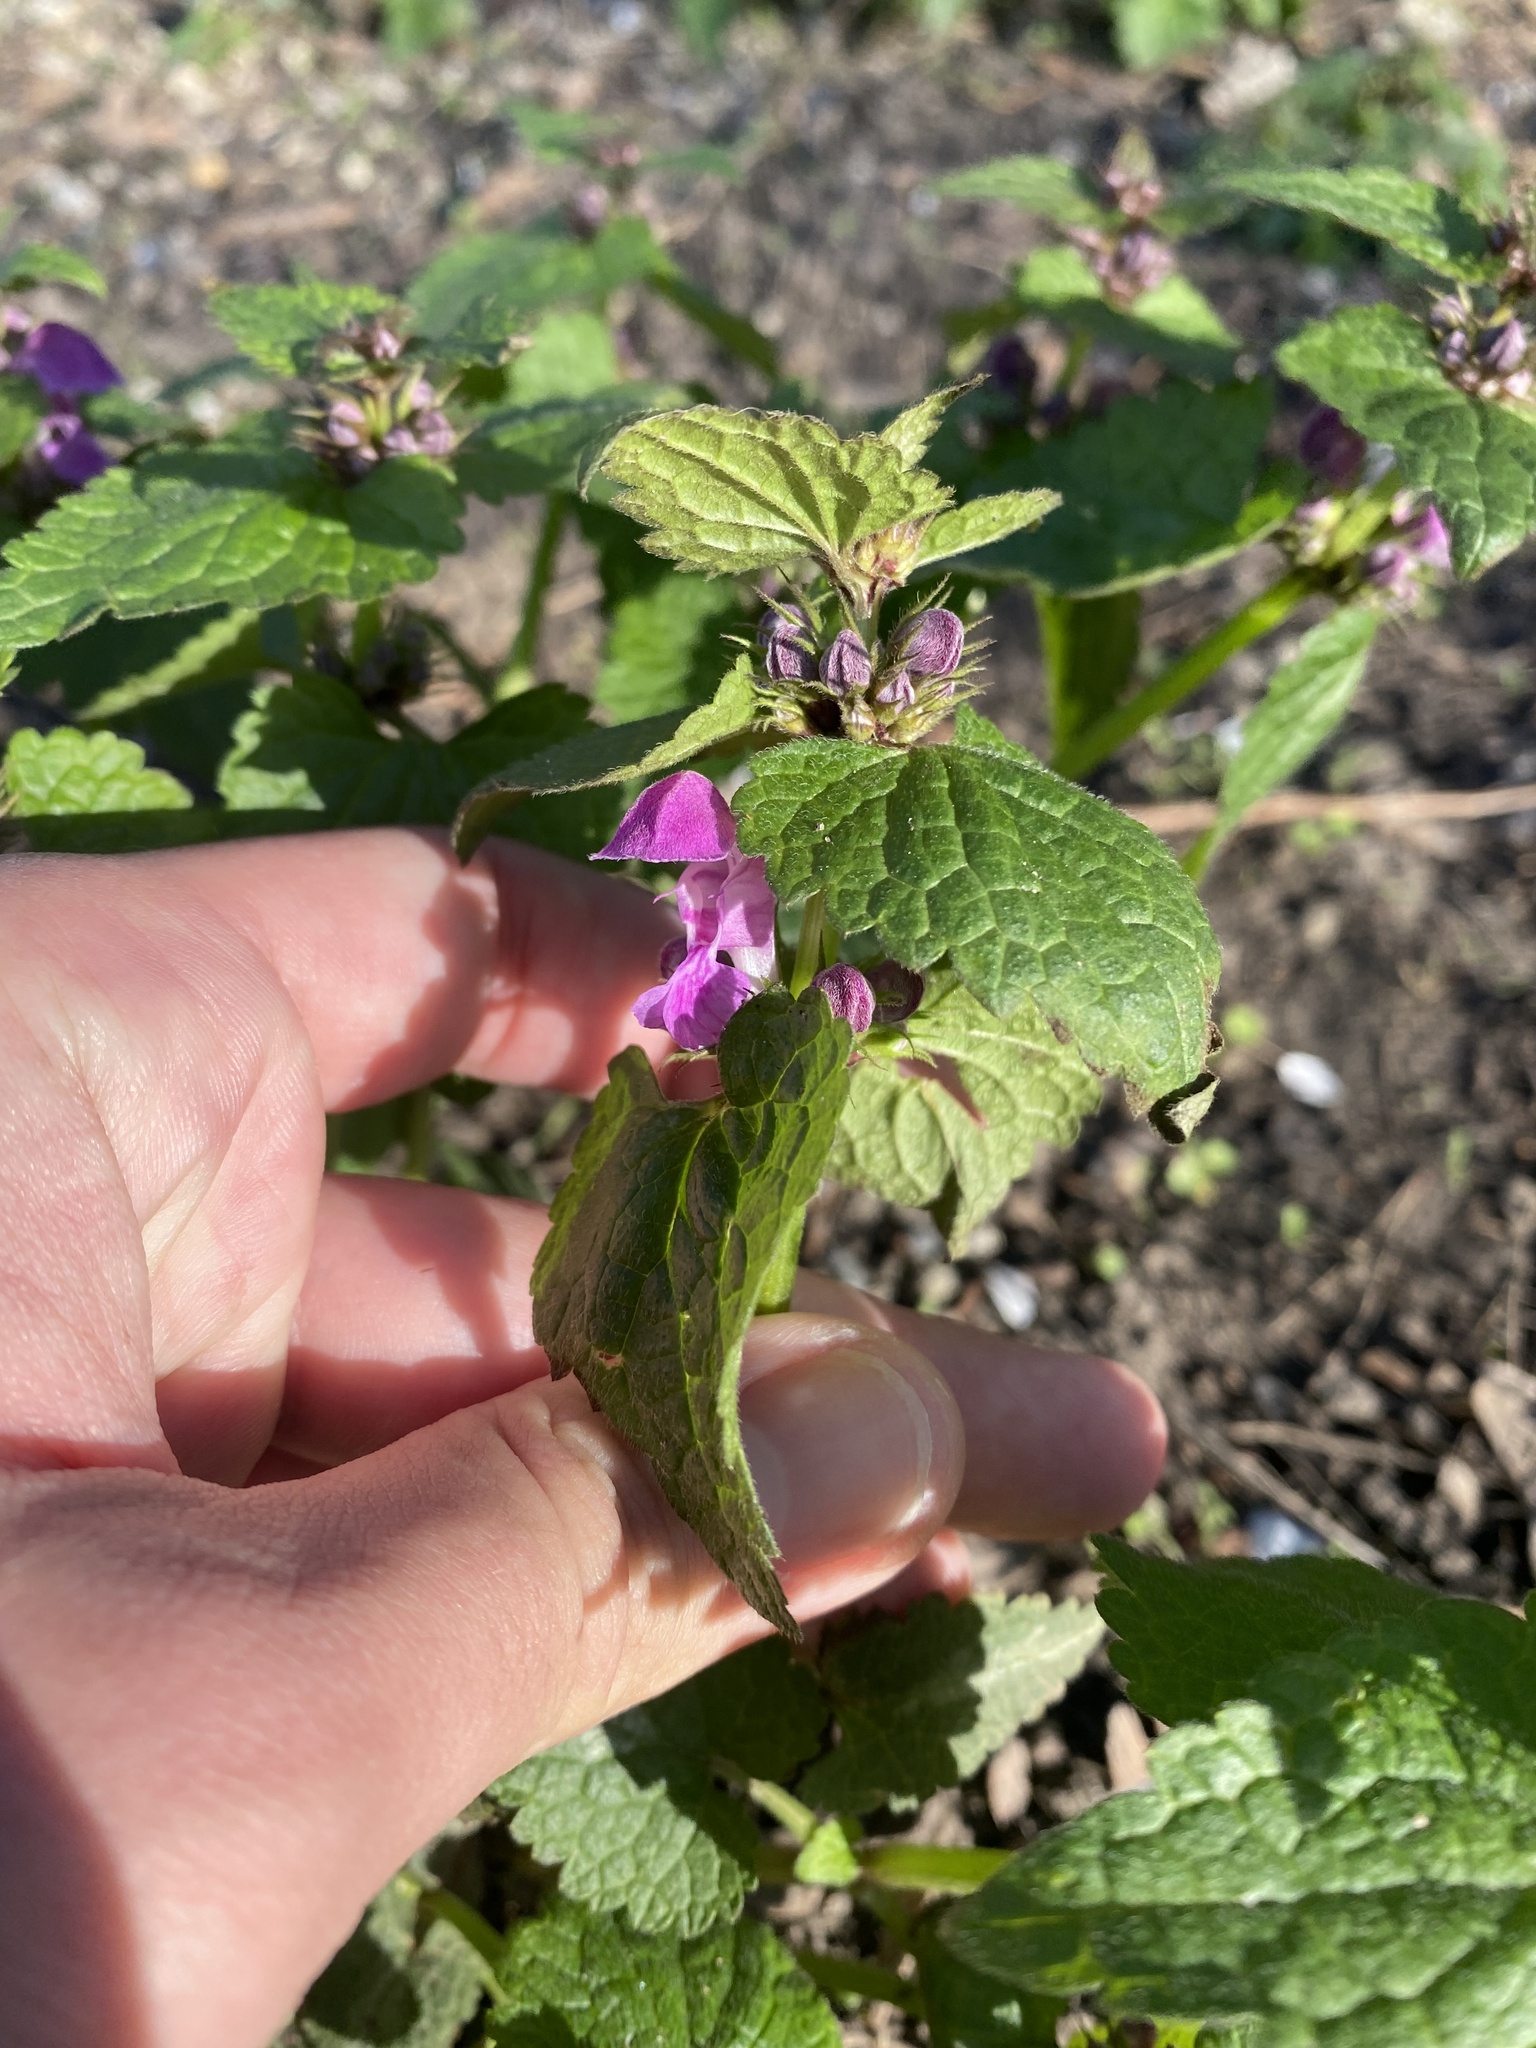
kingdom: Plantae
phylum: Tracheophyta
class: Magnoliopsida
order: Lamiales
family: Lamiaceae
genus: Lamium
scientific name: Lamium maculatum
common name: Spotted dead-nettle
